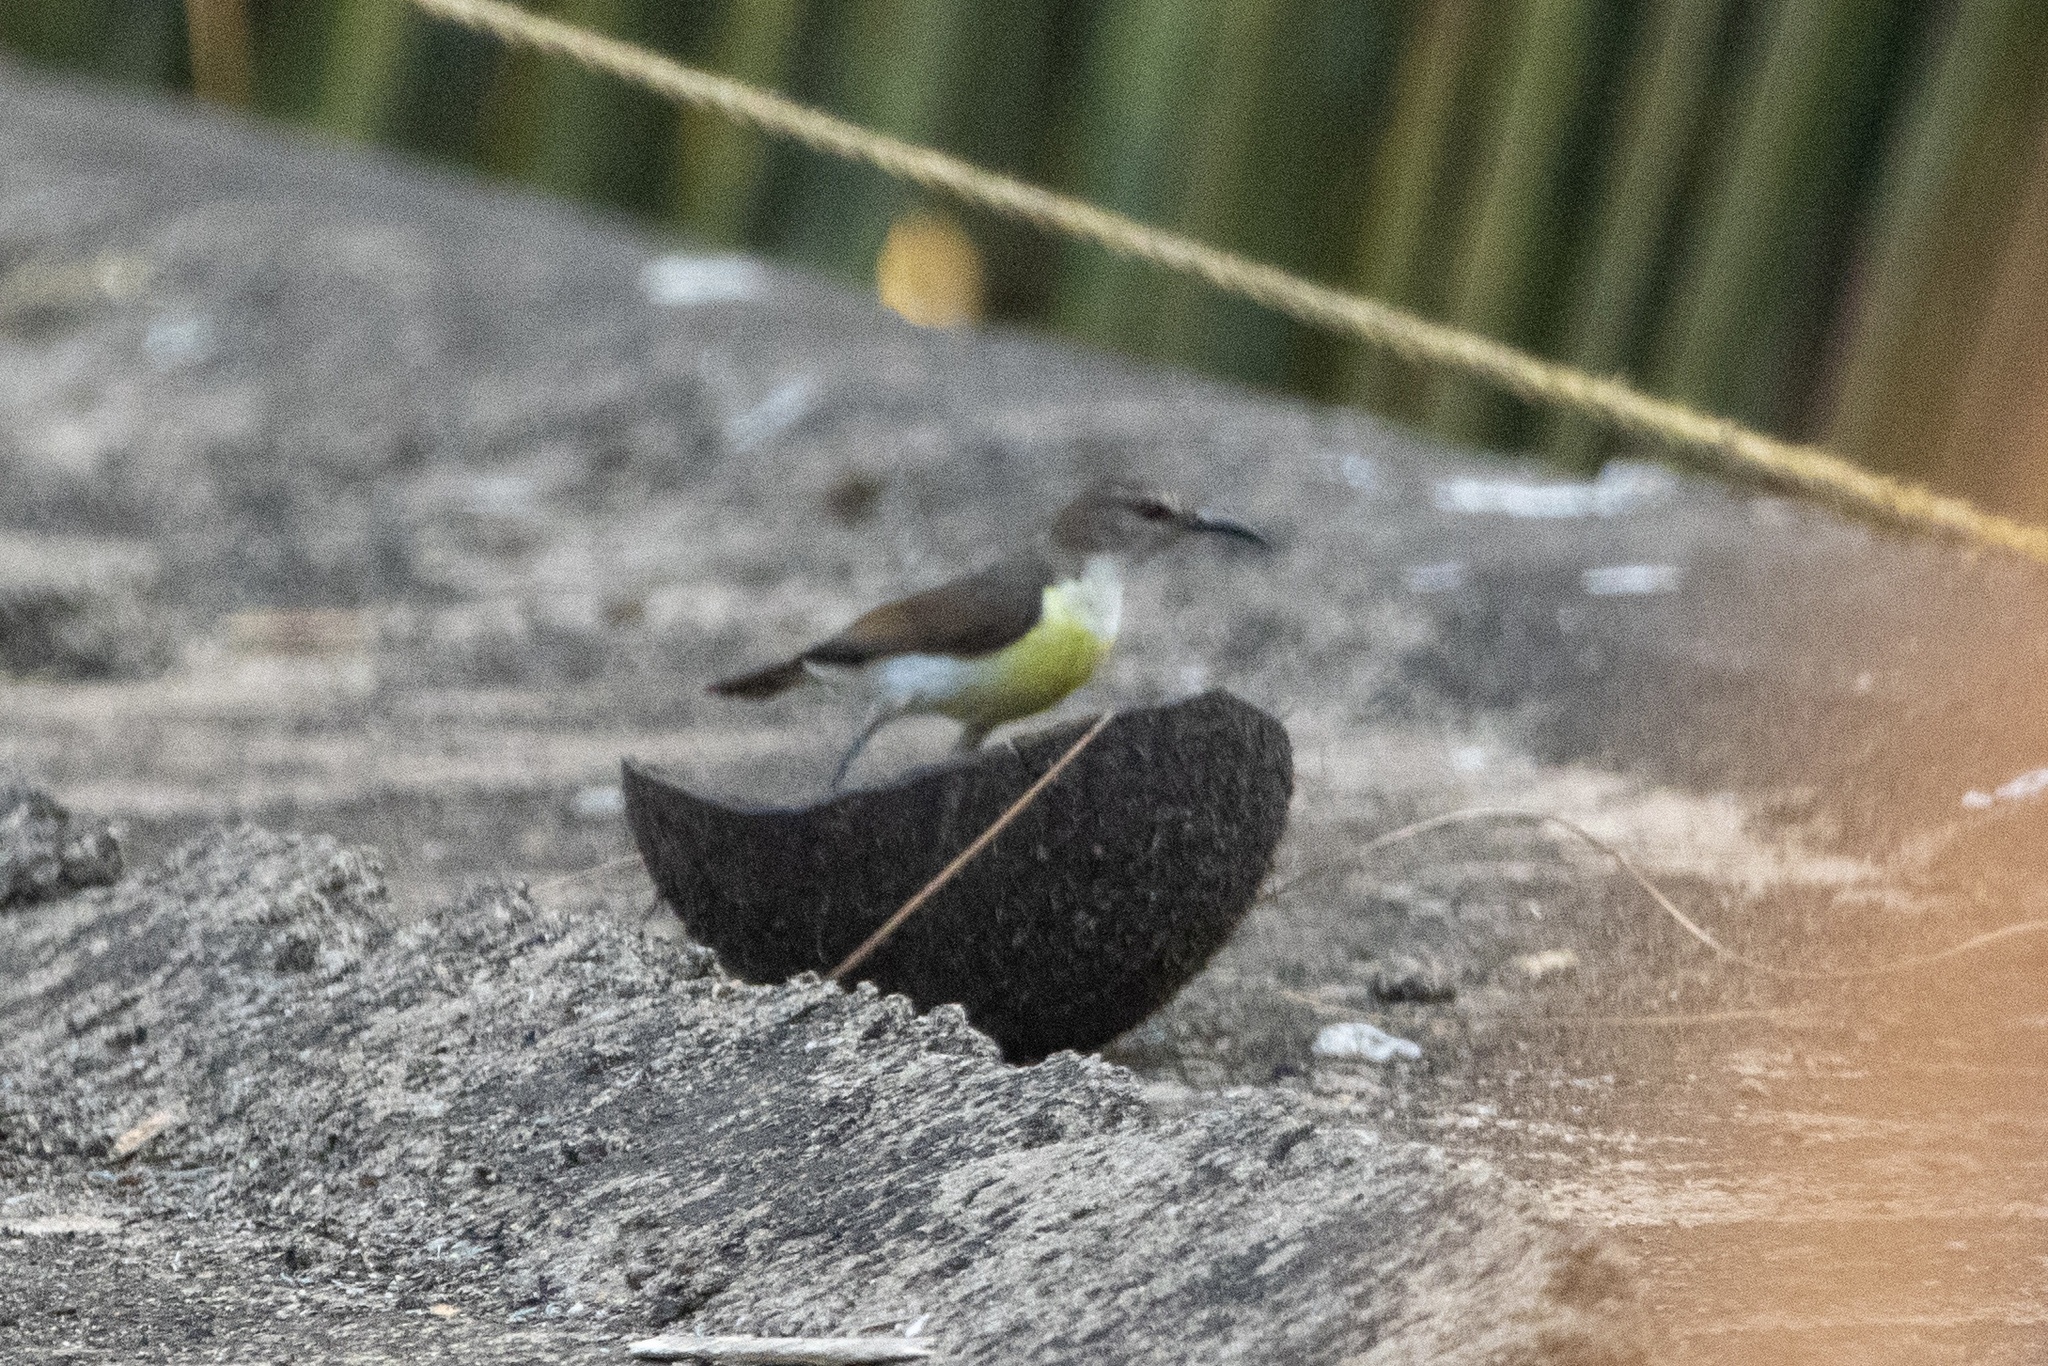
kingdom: Animalia
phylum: Chordata
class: Aves
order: Passeriformes
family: Nectariniidae
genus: Leptocoma
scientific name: Leptocoma zeylonica
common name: Purple-rumped sunbird
